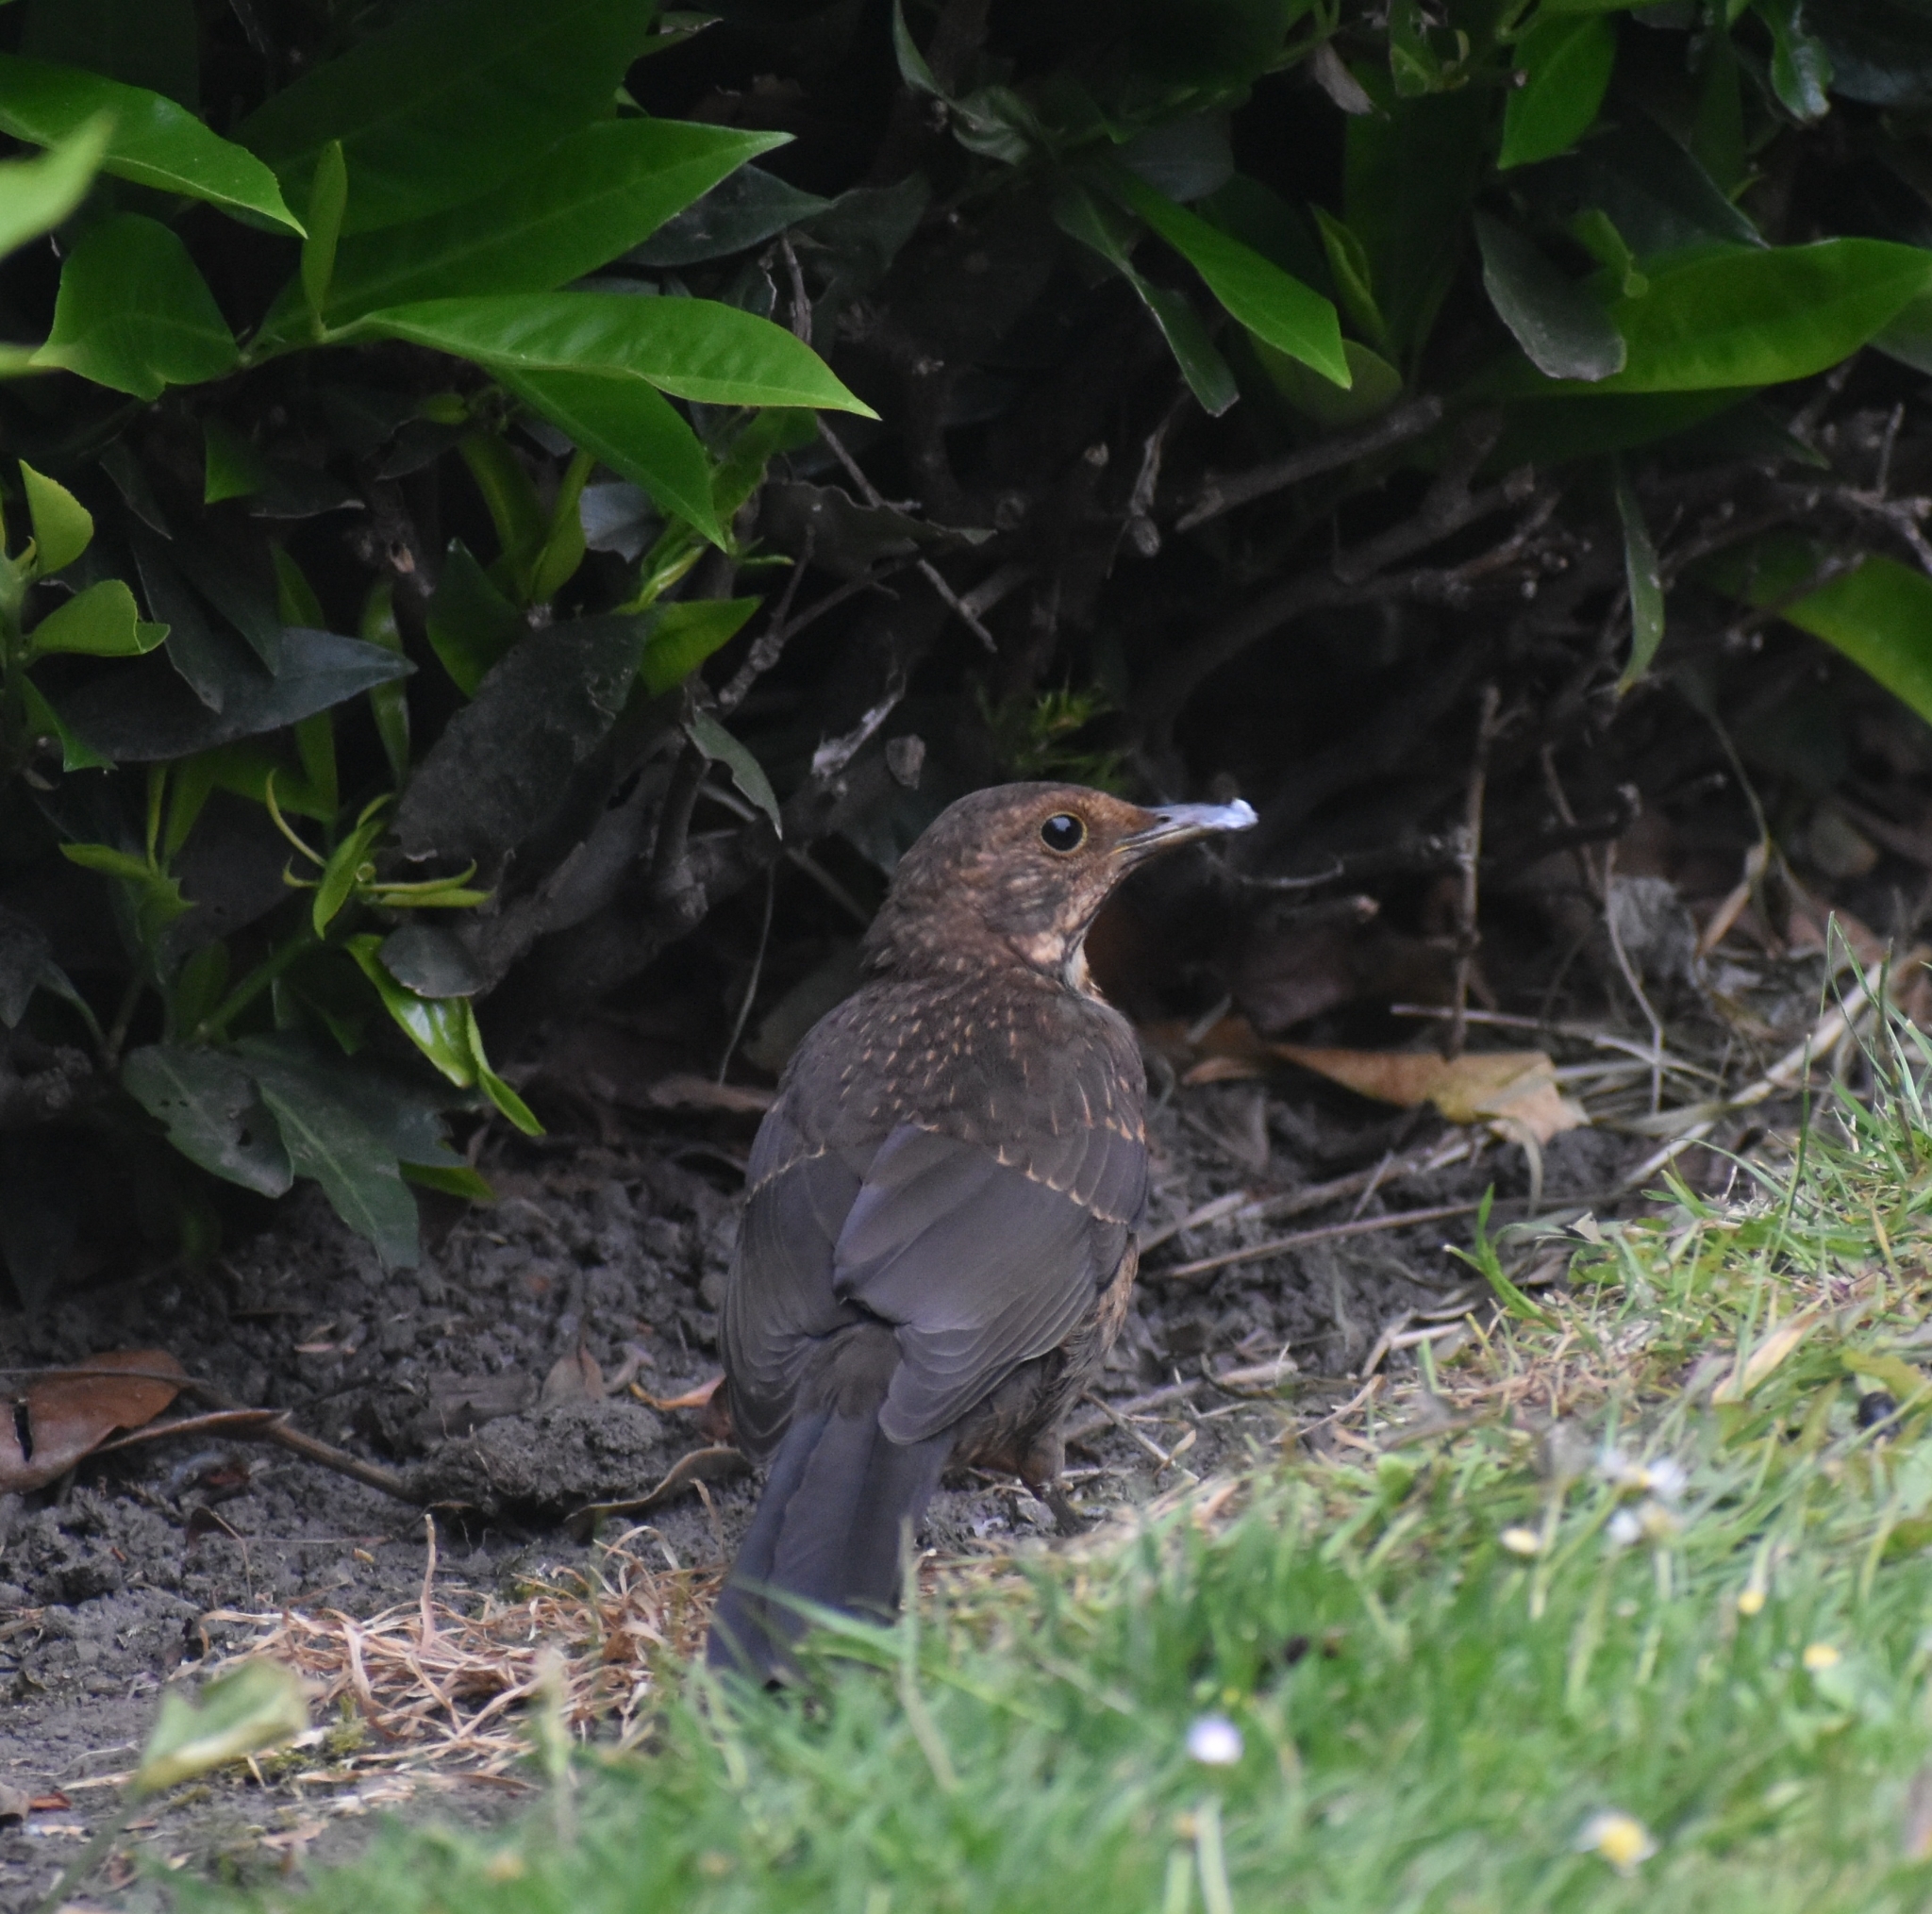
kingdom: Animalia
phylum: Chordata
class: Aves
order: Passeriformes
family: Turdidae
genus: Turdus
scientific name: Turdus merula
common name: Common blackbird
